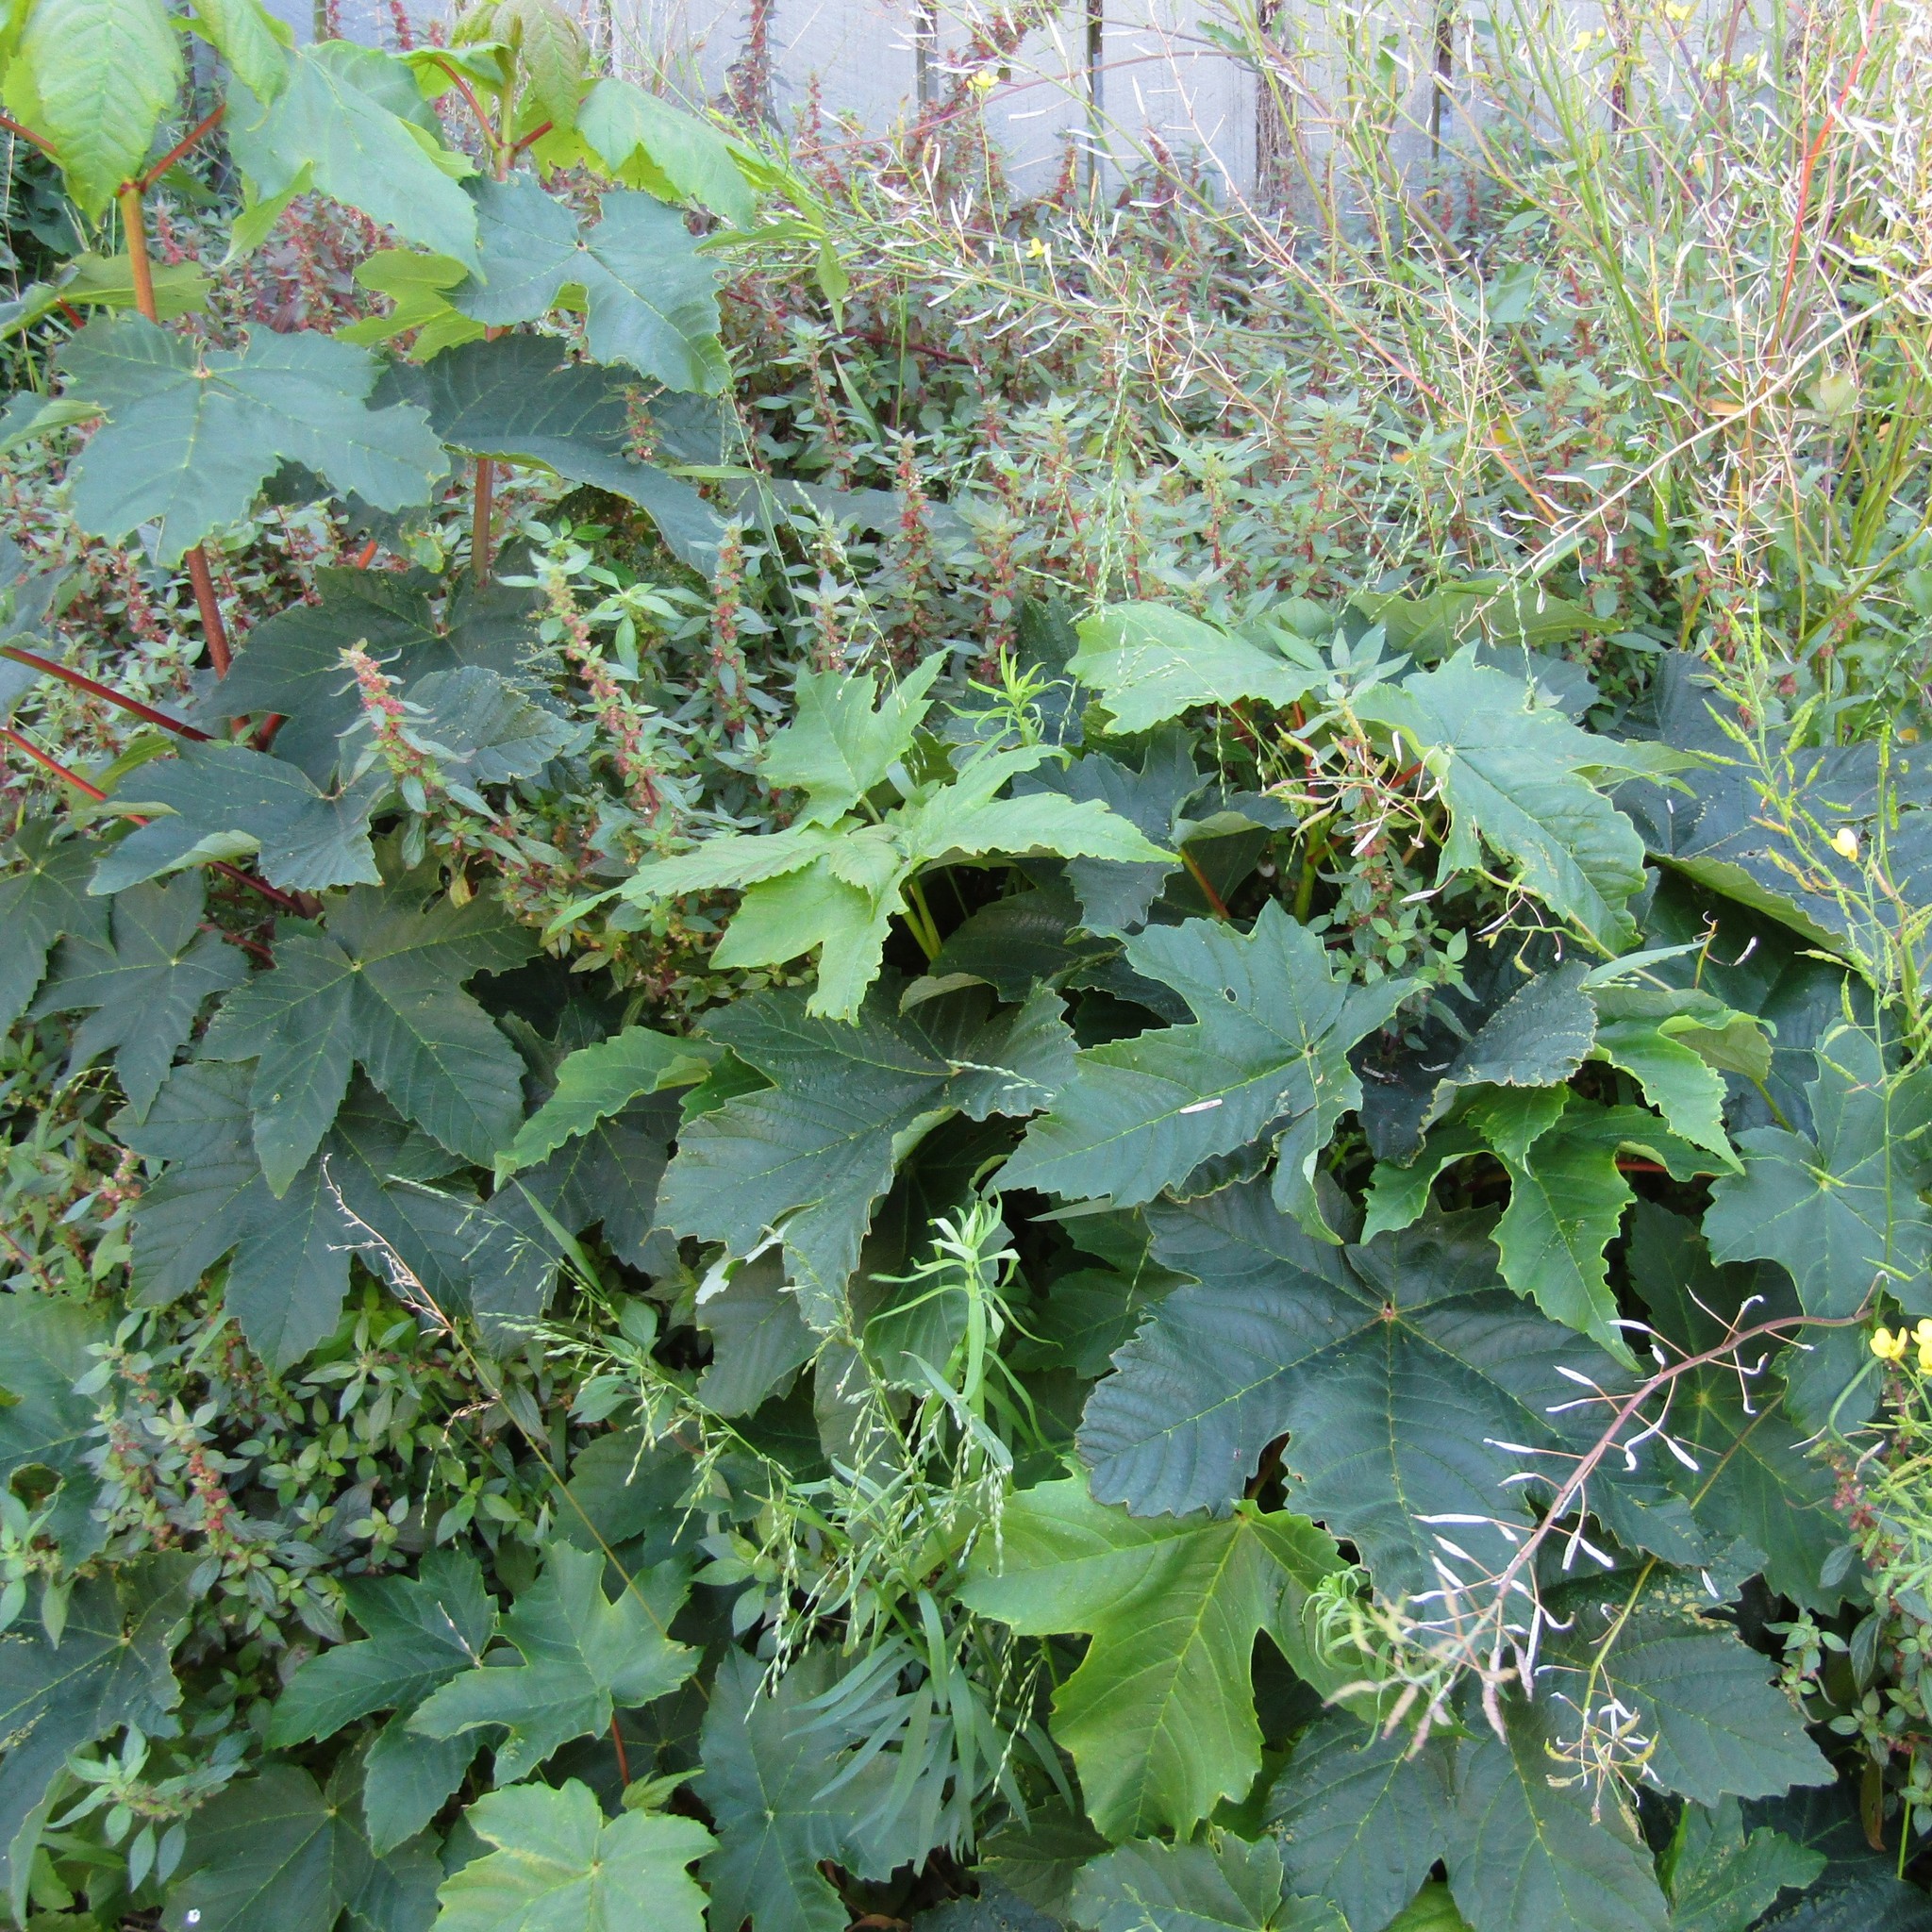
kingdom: Plantae
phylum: Tracheophyta
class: Magnoliopsida
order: Sapindales
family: Sapindaceae
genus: Acer
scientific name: Acer pseudoplatanus
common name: Sycamore
